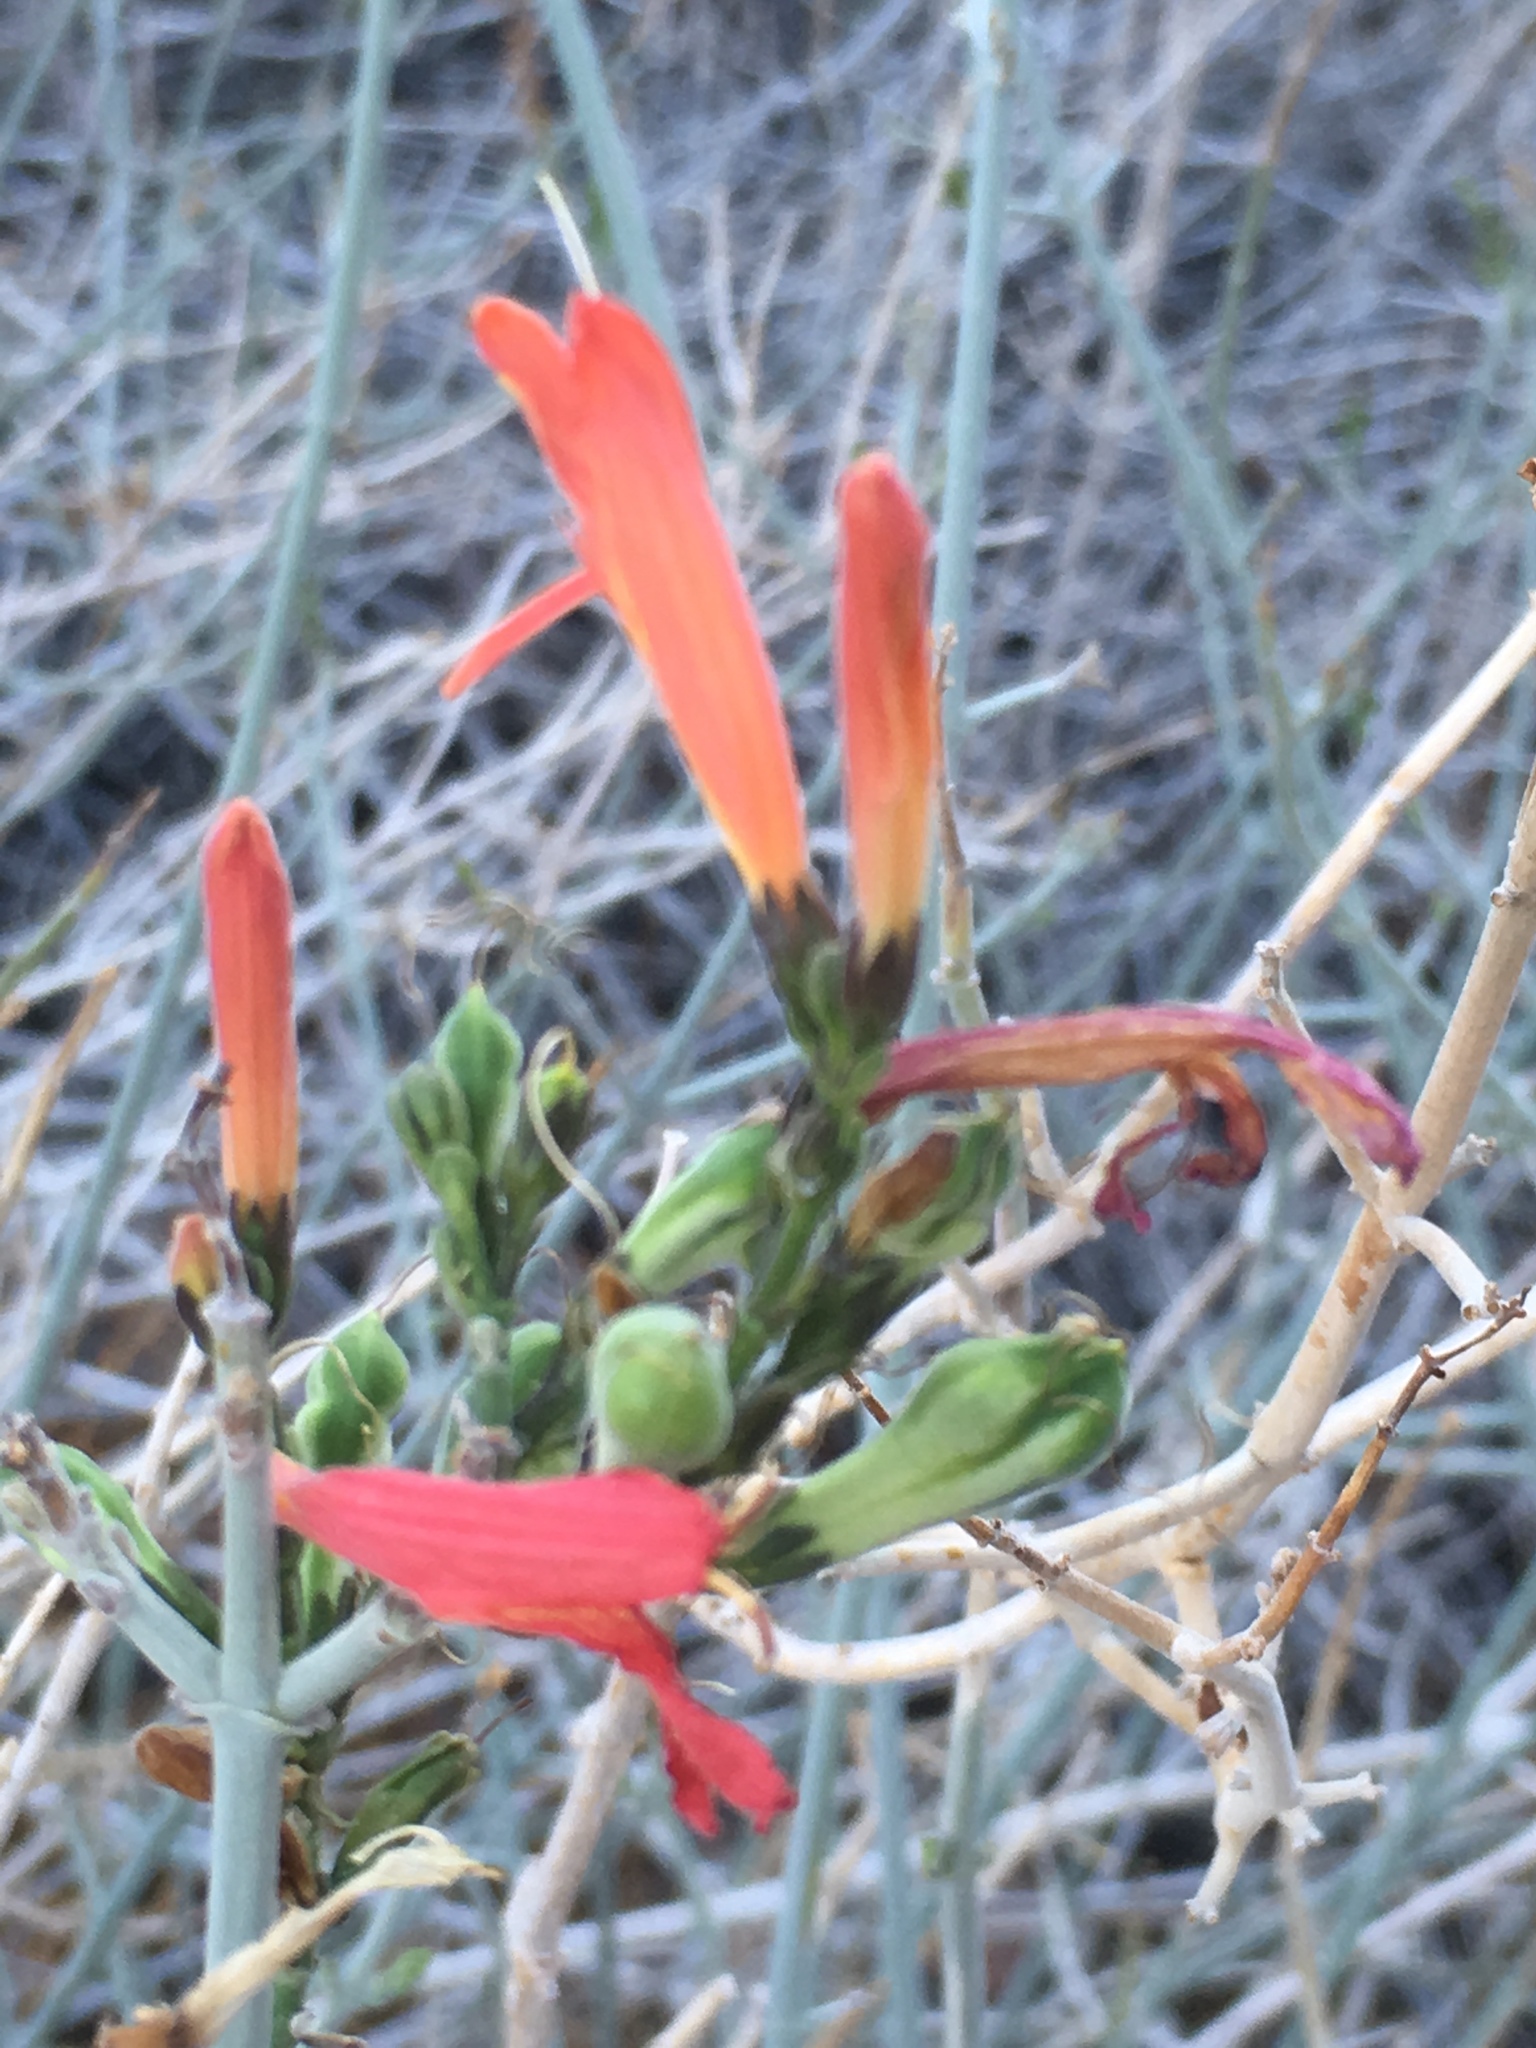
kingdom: Plantae
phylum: Tracheophyta
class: Magnoliopsida
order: Lamiales
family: Acanthaceae
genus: Justicia
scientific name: Justicia californica
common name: Chuparosa-honeysuckle
